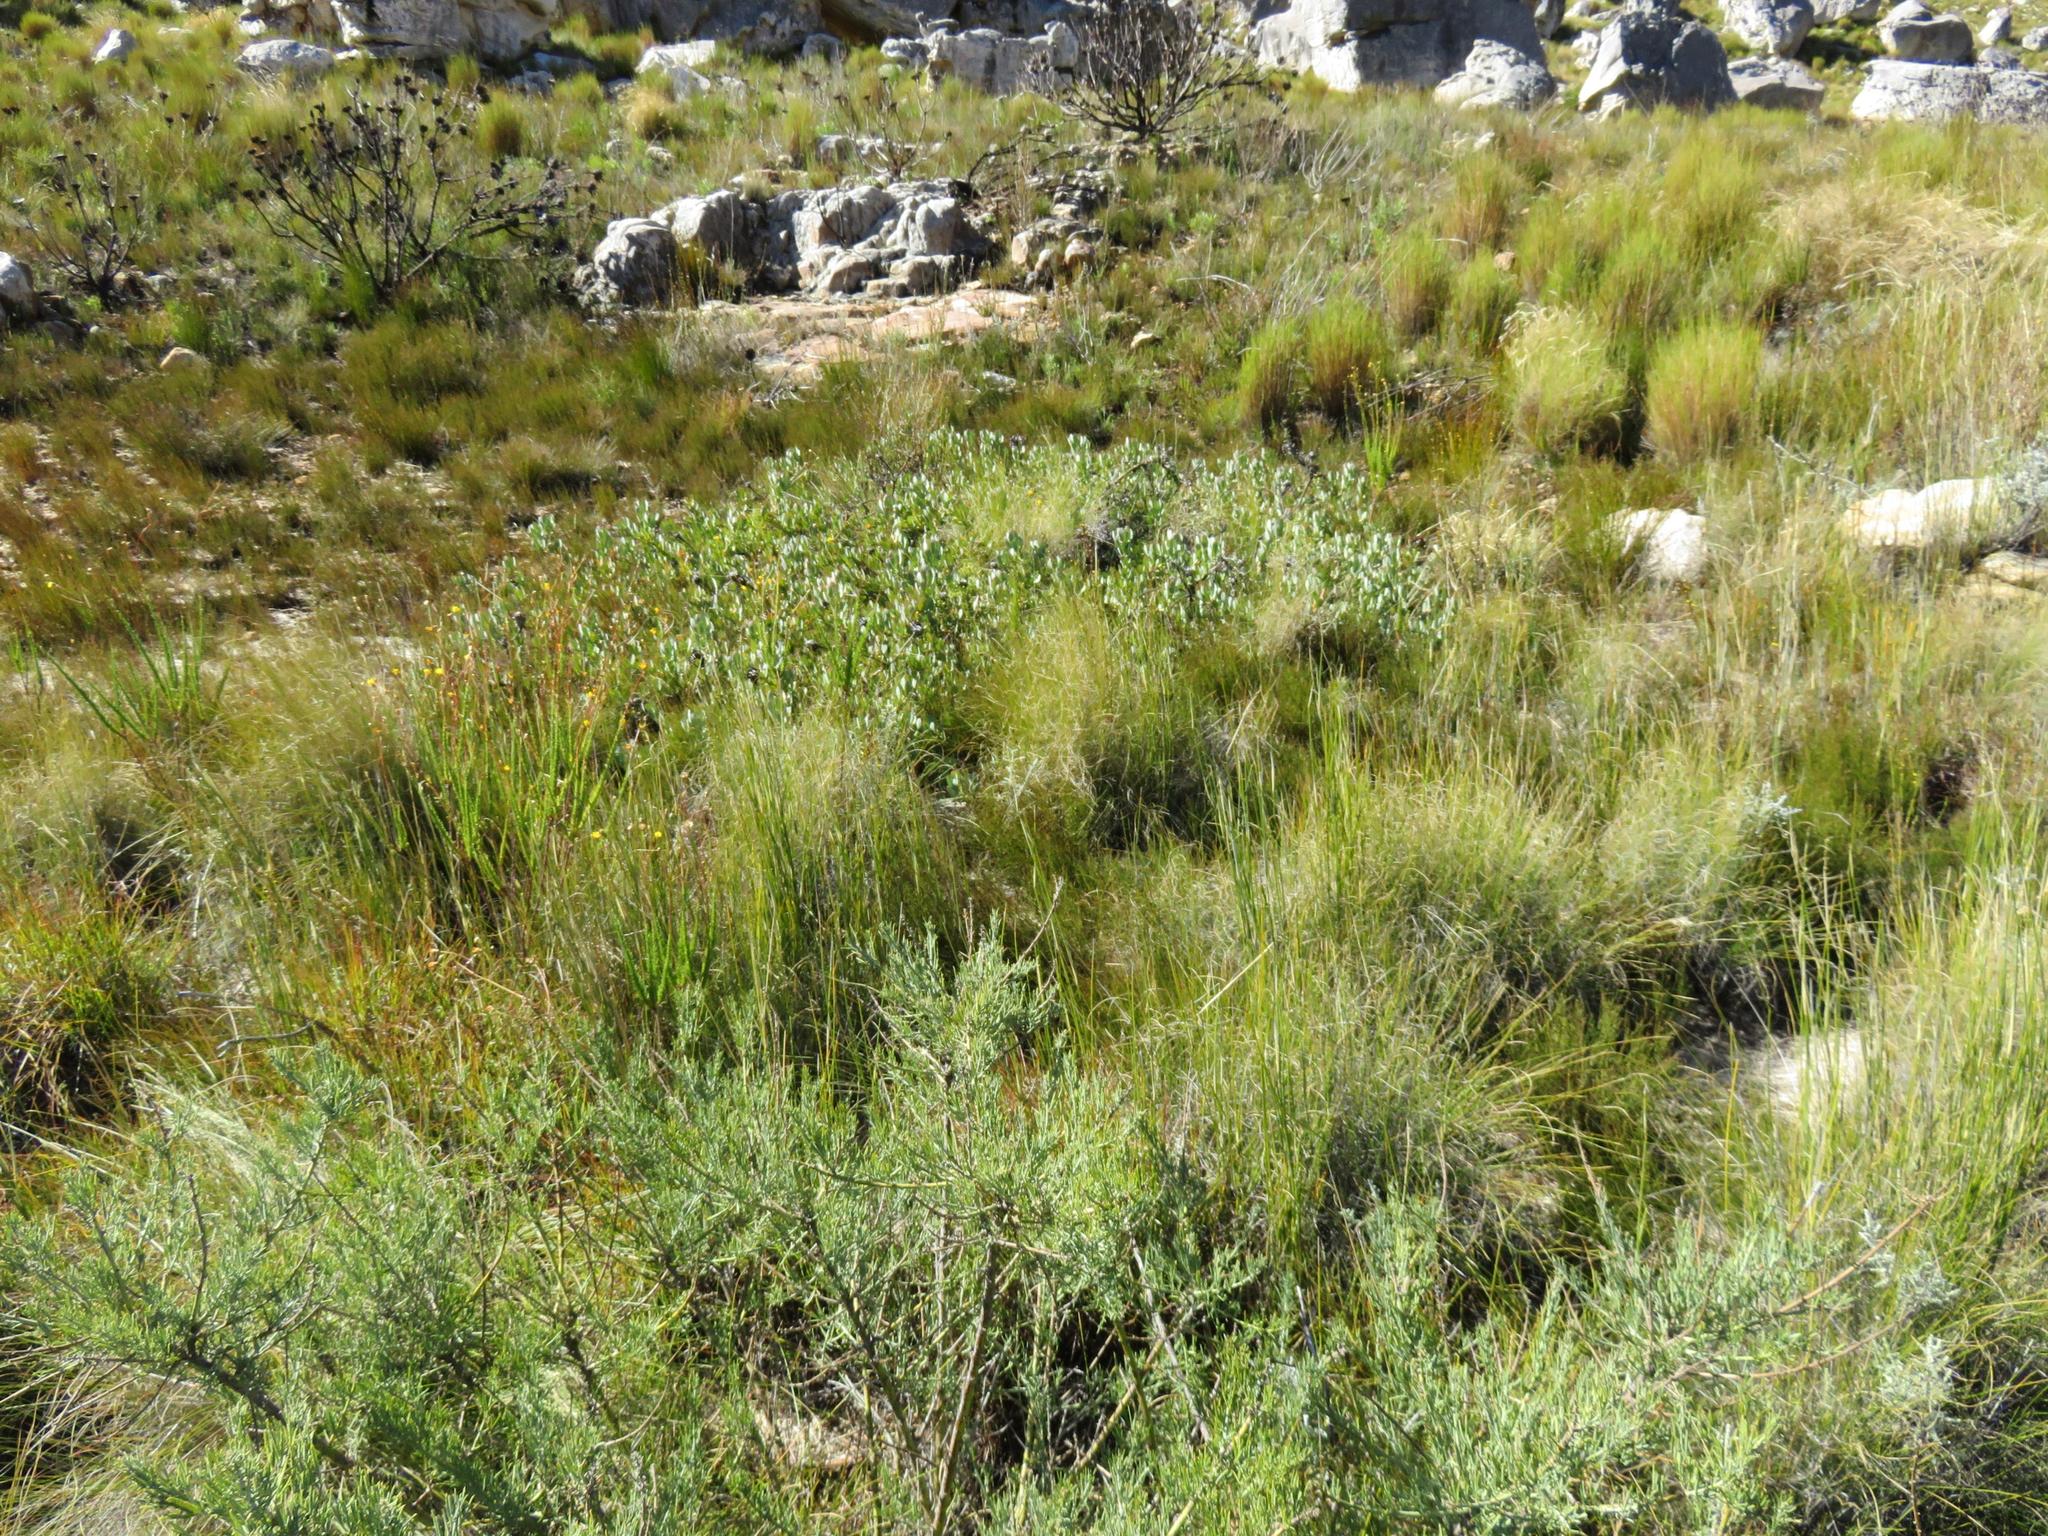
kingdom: Plantae
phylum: Tracheophyta
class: Magnoliopsida
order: Proteales
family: Proteaceae
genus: Leucadendron
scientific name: Leucadendron arcuatum
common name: Red-edge conebush
